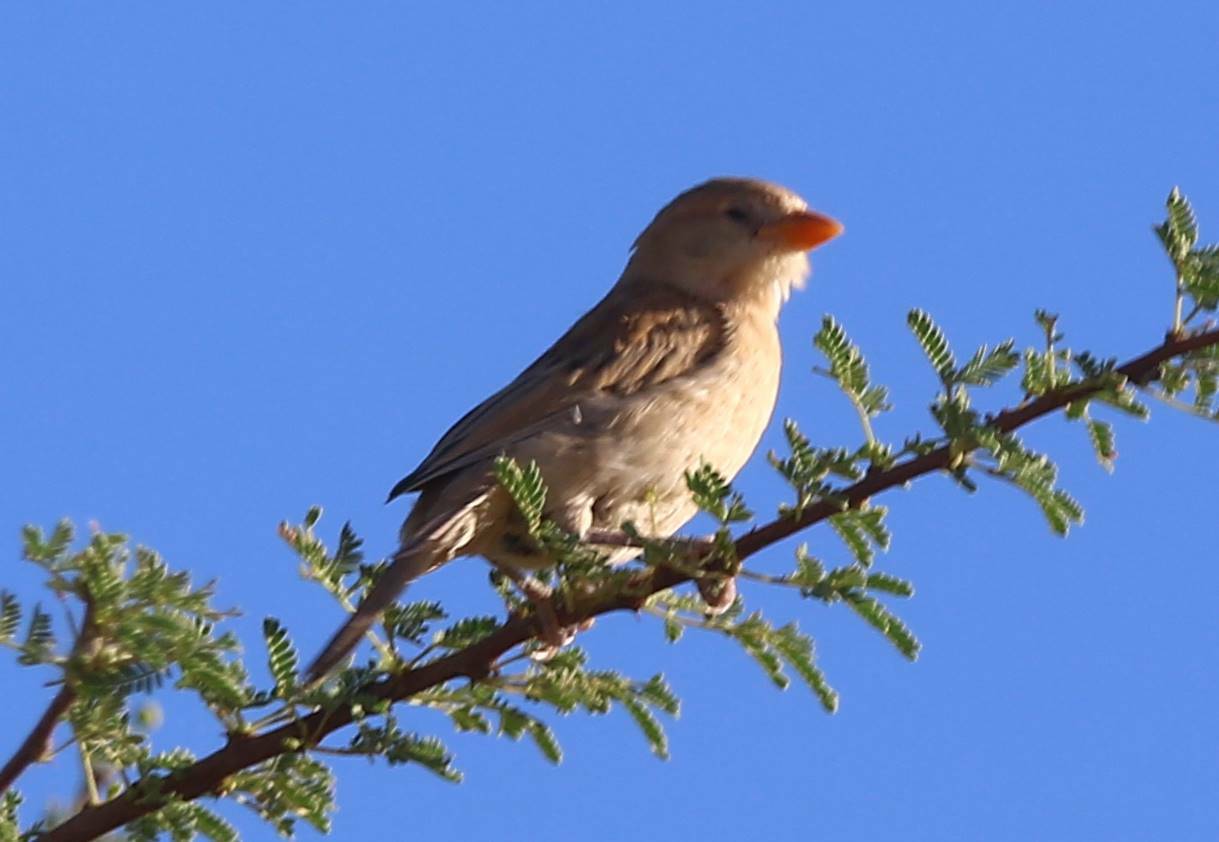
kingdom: Animalia
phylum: Chordata
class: Aves
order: Passeriformes
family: Passeridae
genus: Passer
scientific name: Passer simplex
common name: Desert sparrow
